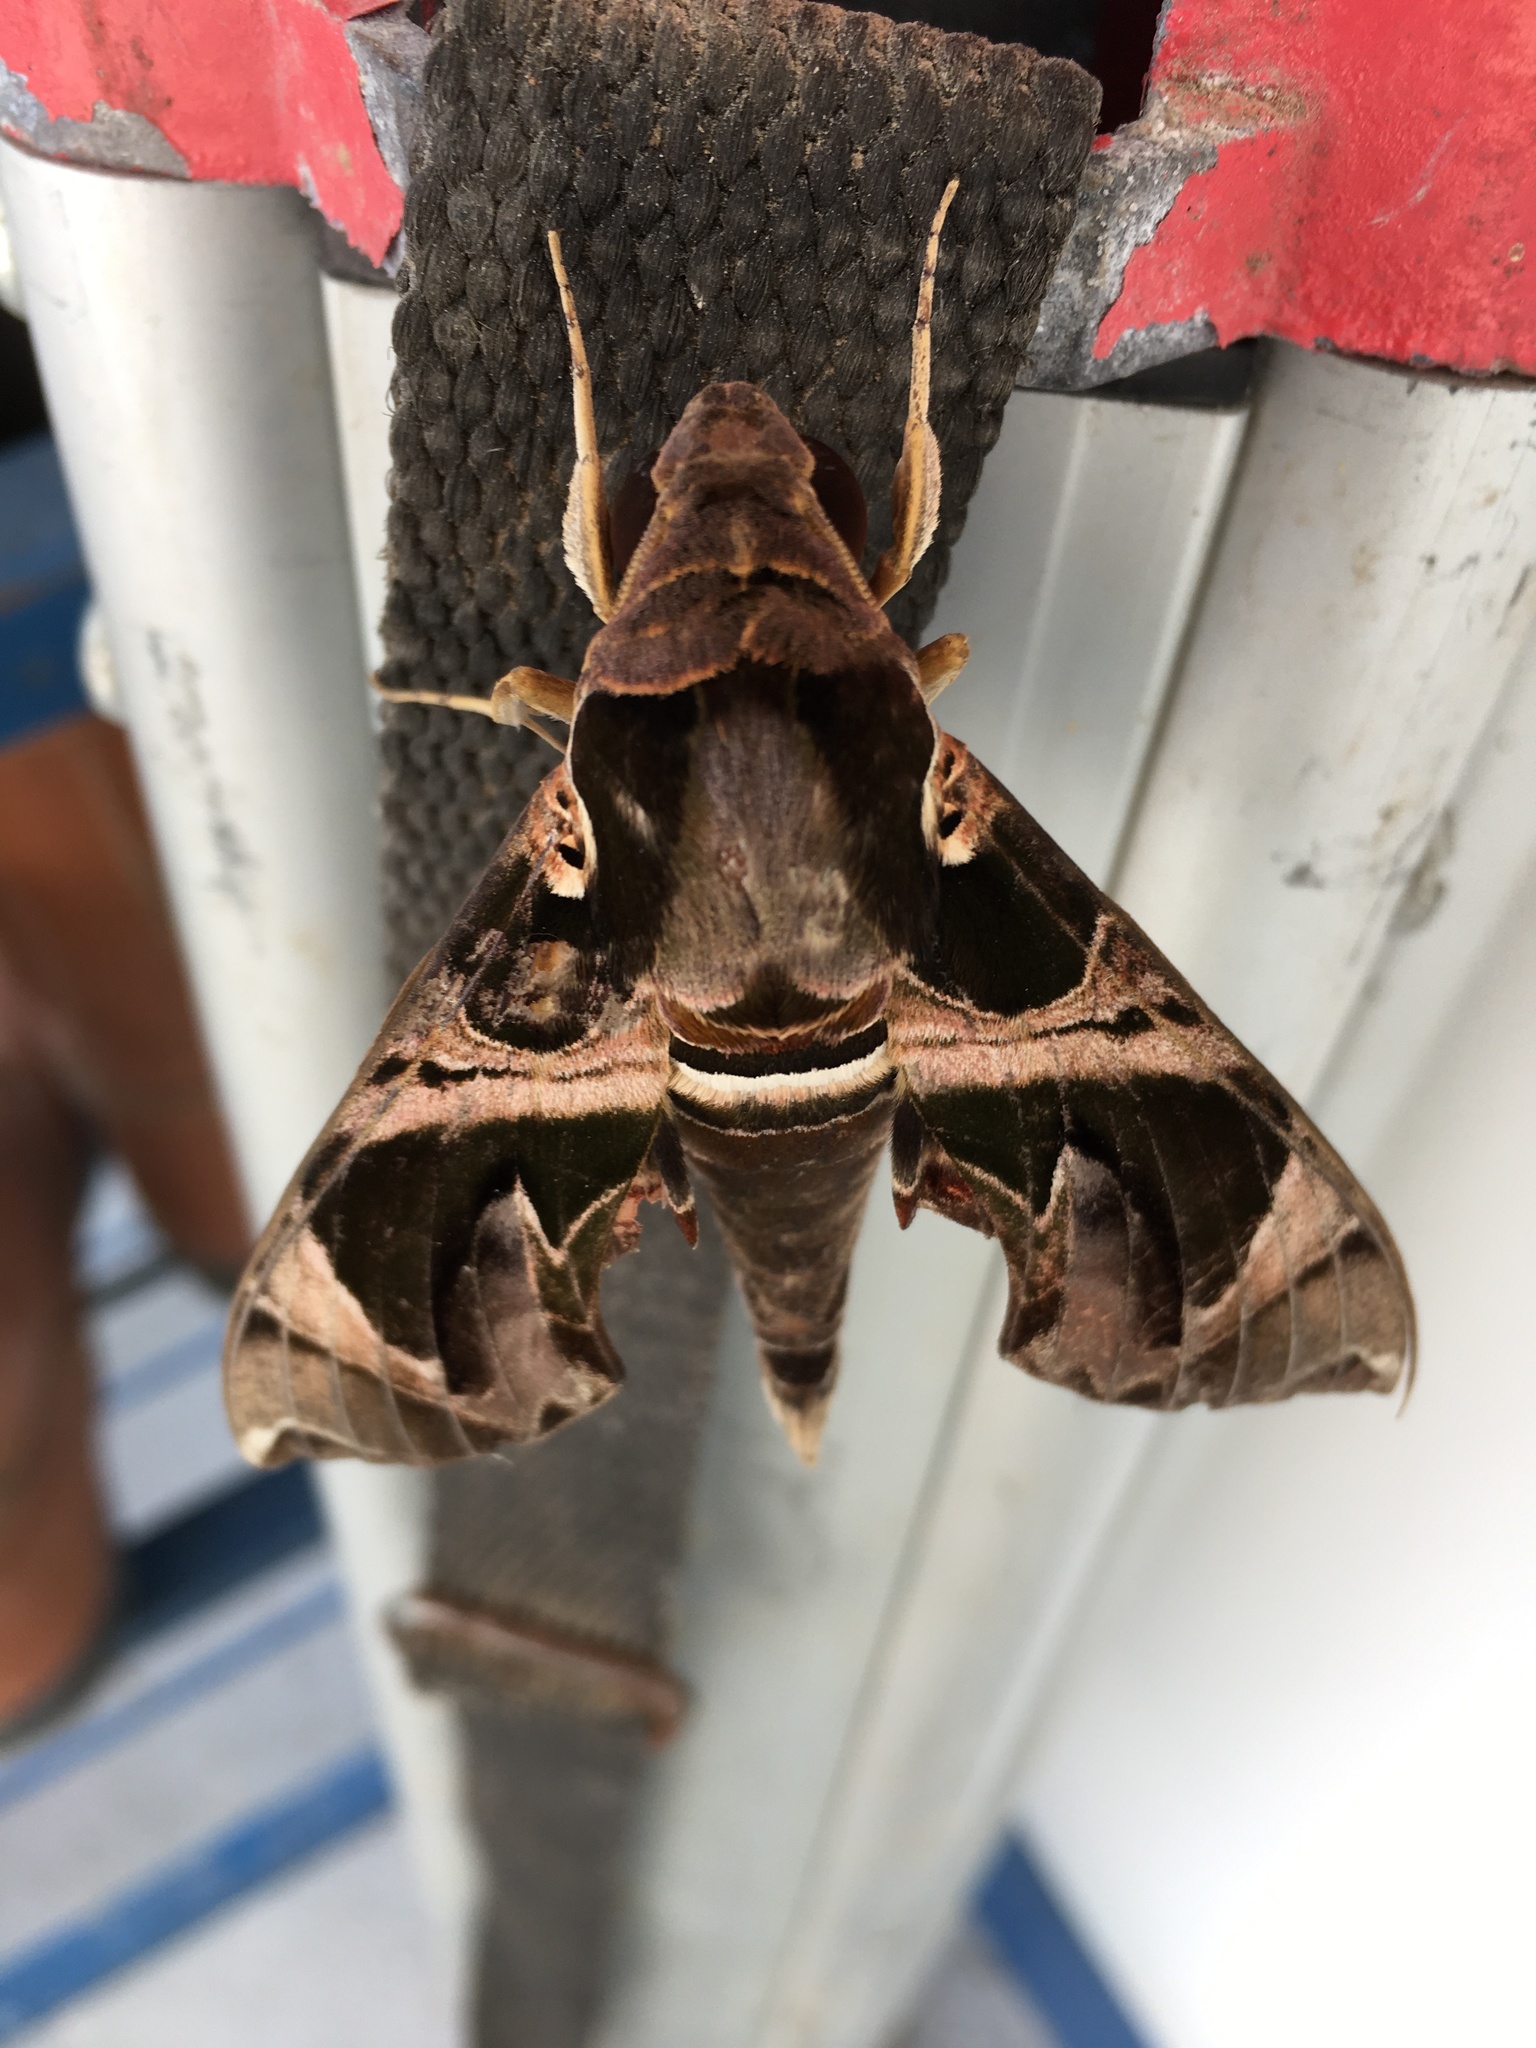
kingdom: Animalia
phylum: Arthropoda
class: Insecta
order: Lepidoptera
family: Sphingidae
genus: Daphnis
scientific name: Daphnis hypothous
